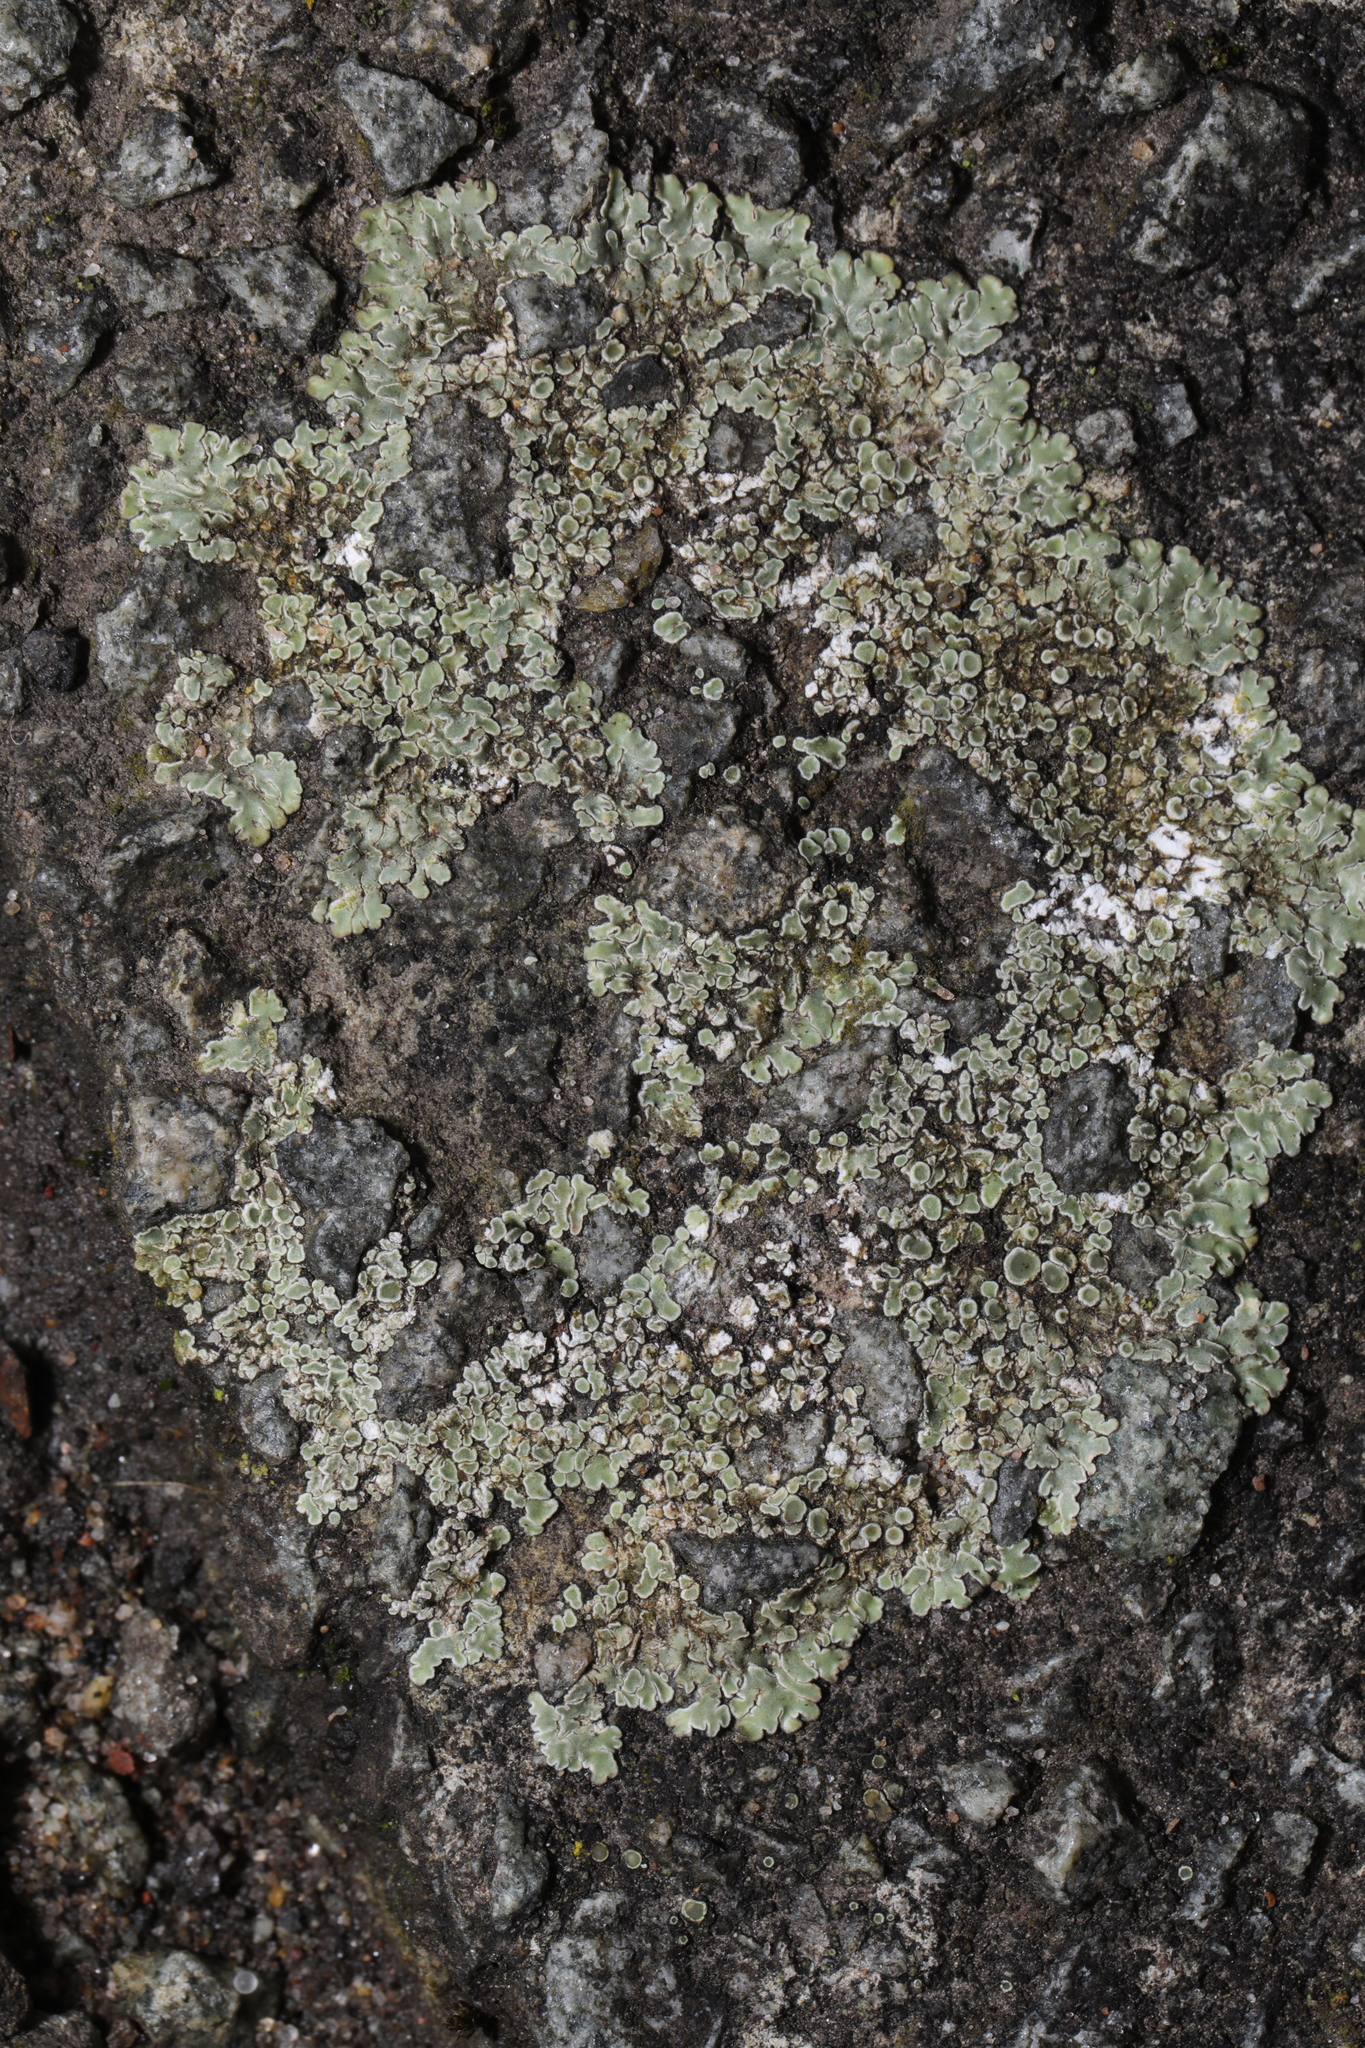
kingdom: Fungi
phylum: Ascomycota
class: Lecanoromycetes
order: Lecanorales
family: Lecanoraceae
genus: Protoparmeliopsis
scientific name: Protoparmeliopsis muralis
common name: Stonewall rim lichen
